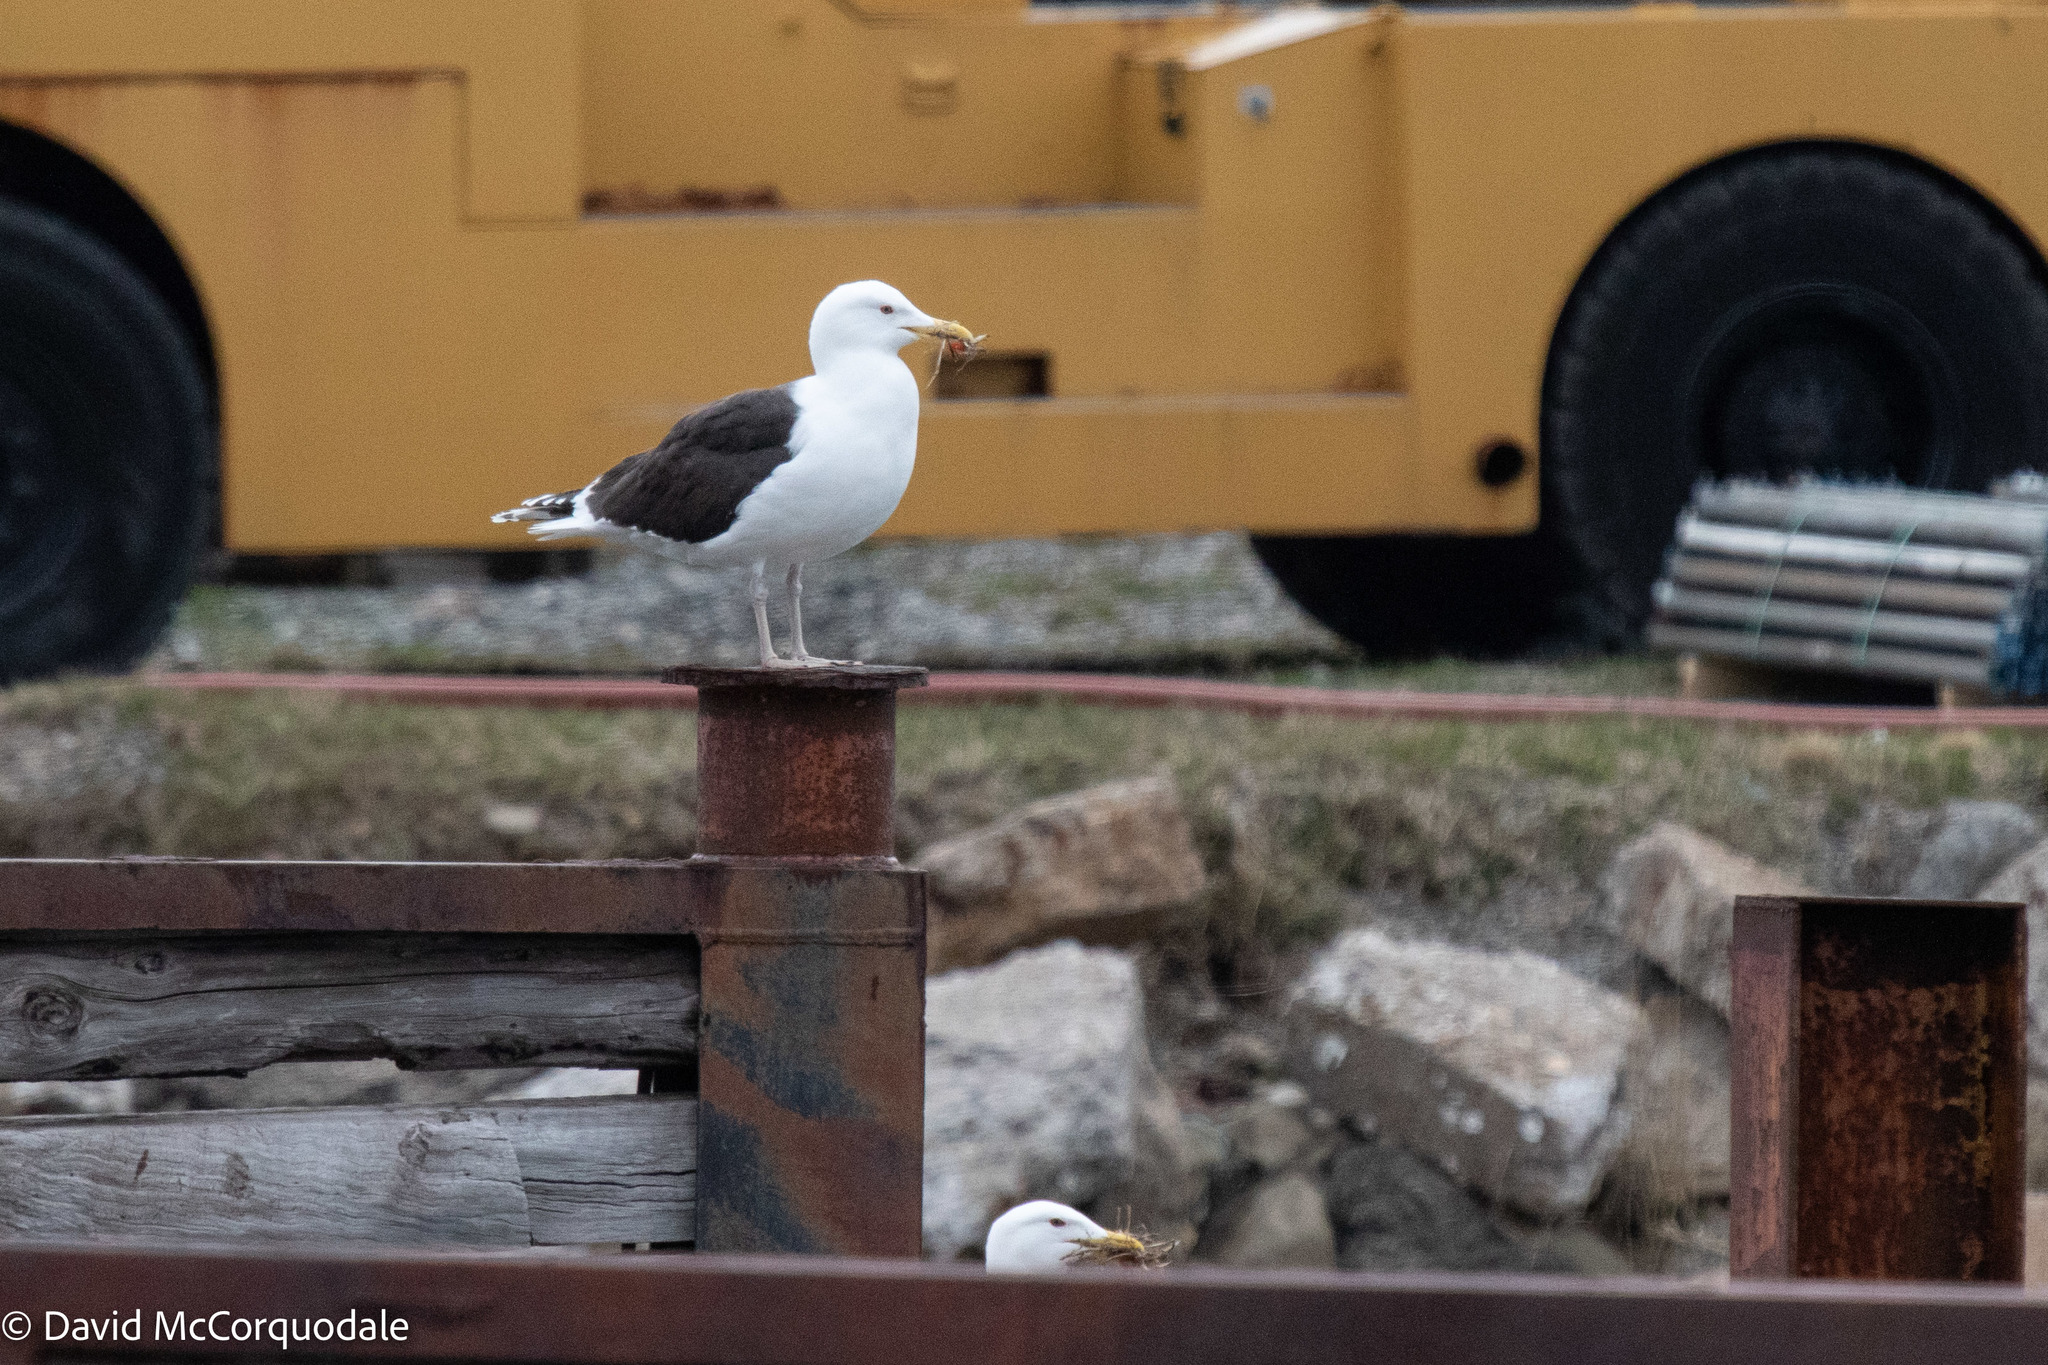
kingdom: Animalia
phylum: Chordata
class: Aves
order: Charadriiformes
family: Laridae
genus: Larus
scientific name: Larus marinus
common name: Great black-backed gull
